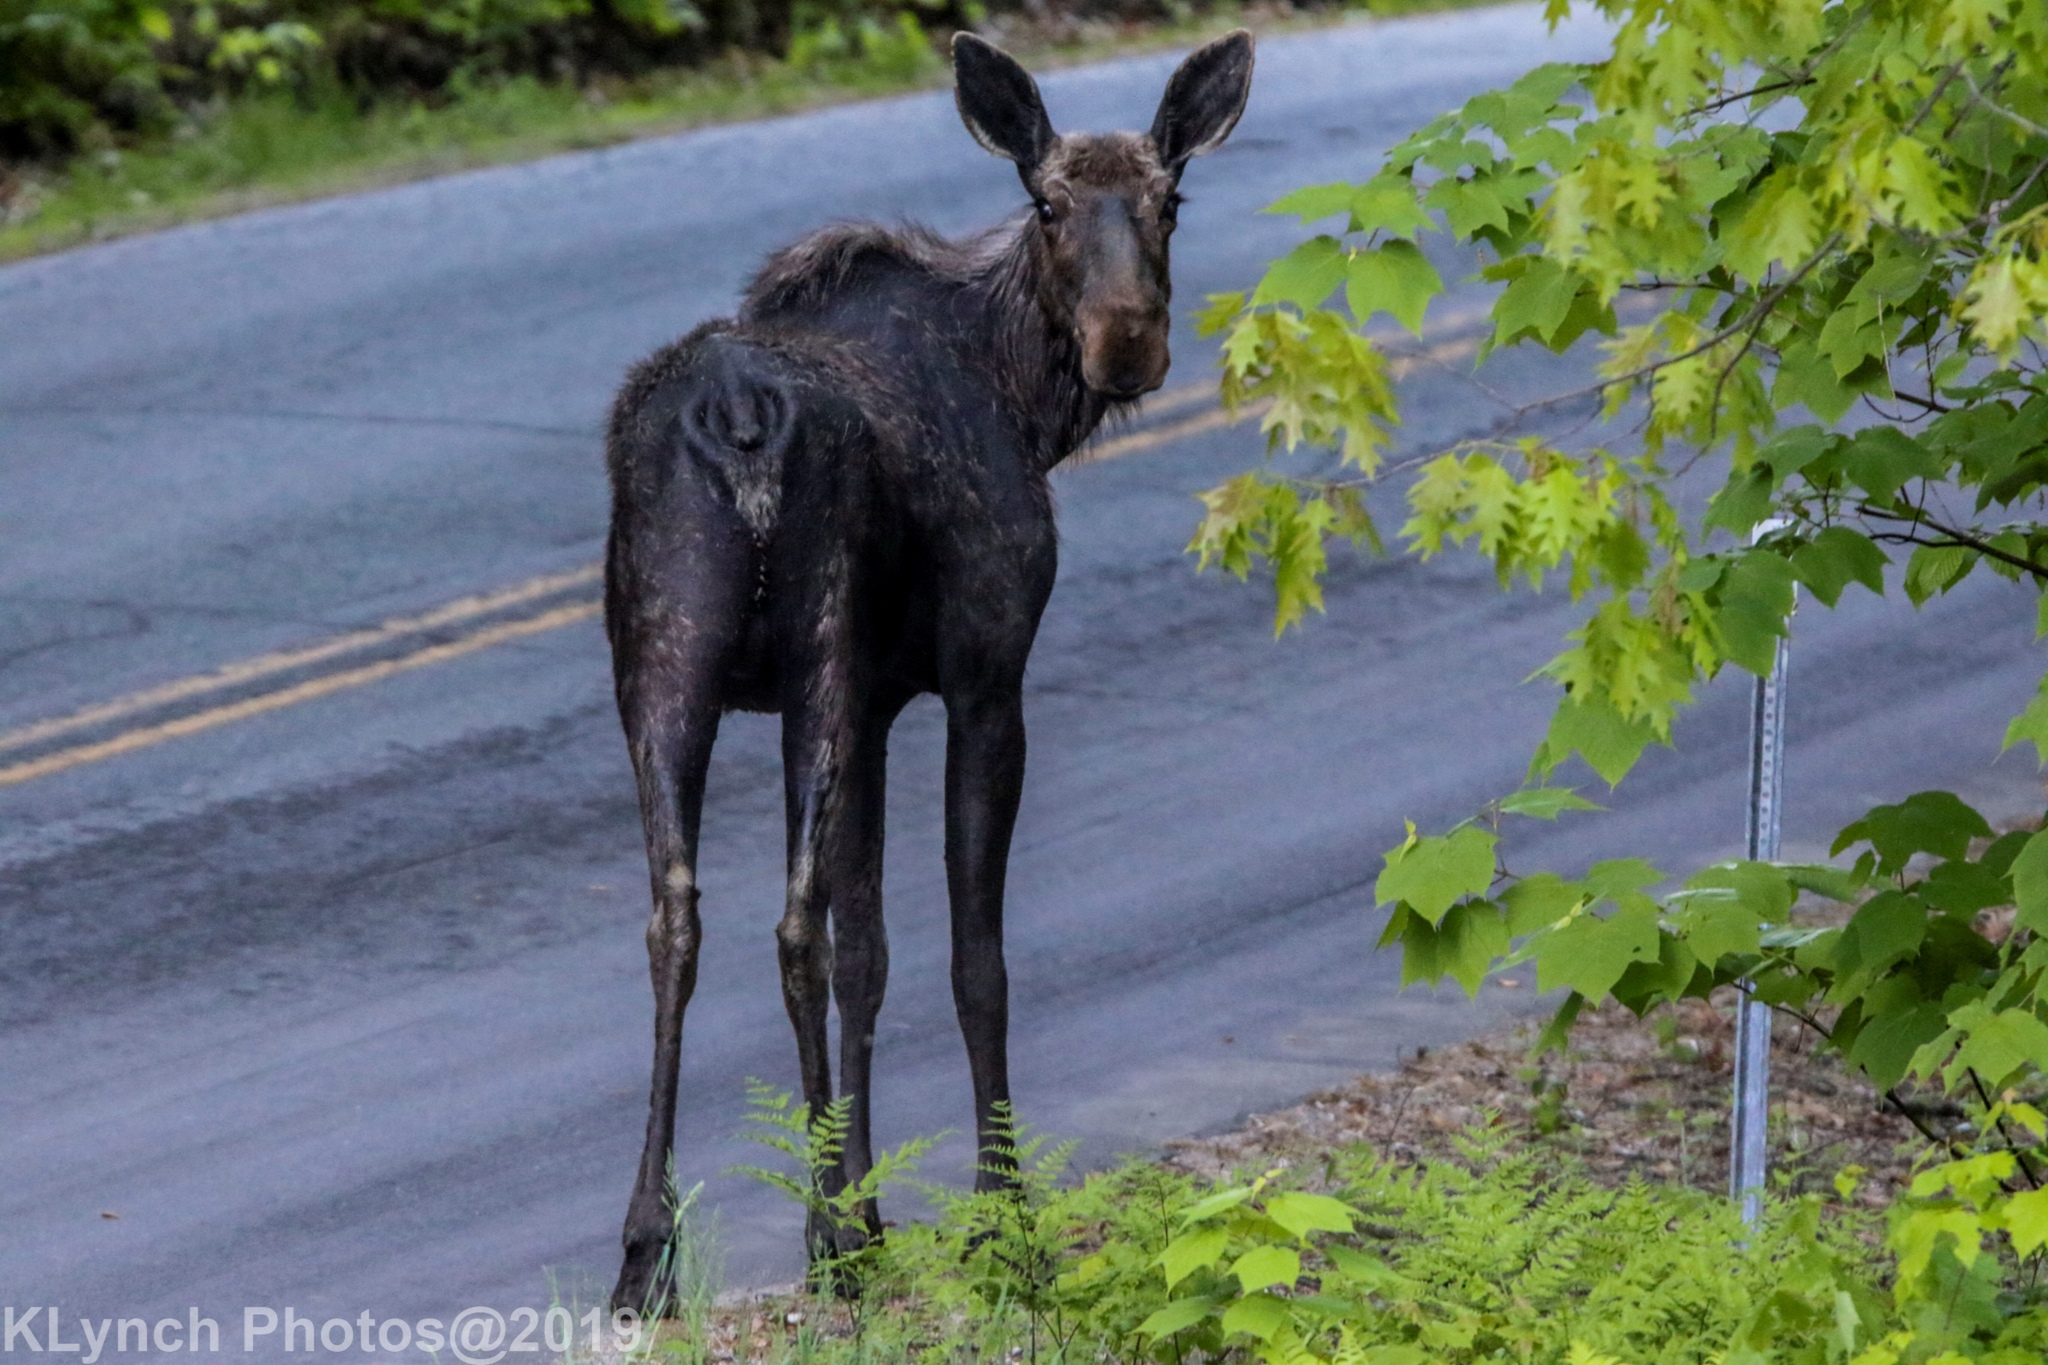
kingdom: Animalia
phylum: Chordata
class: Mammalia
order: Artiodactyla
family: Cervidae
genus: Alces
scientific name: Alces alces
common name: Moose
